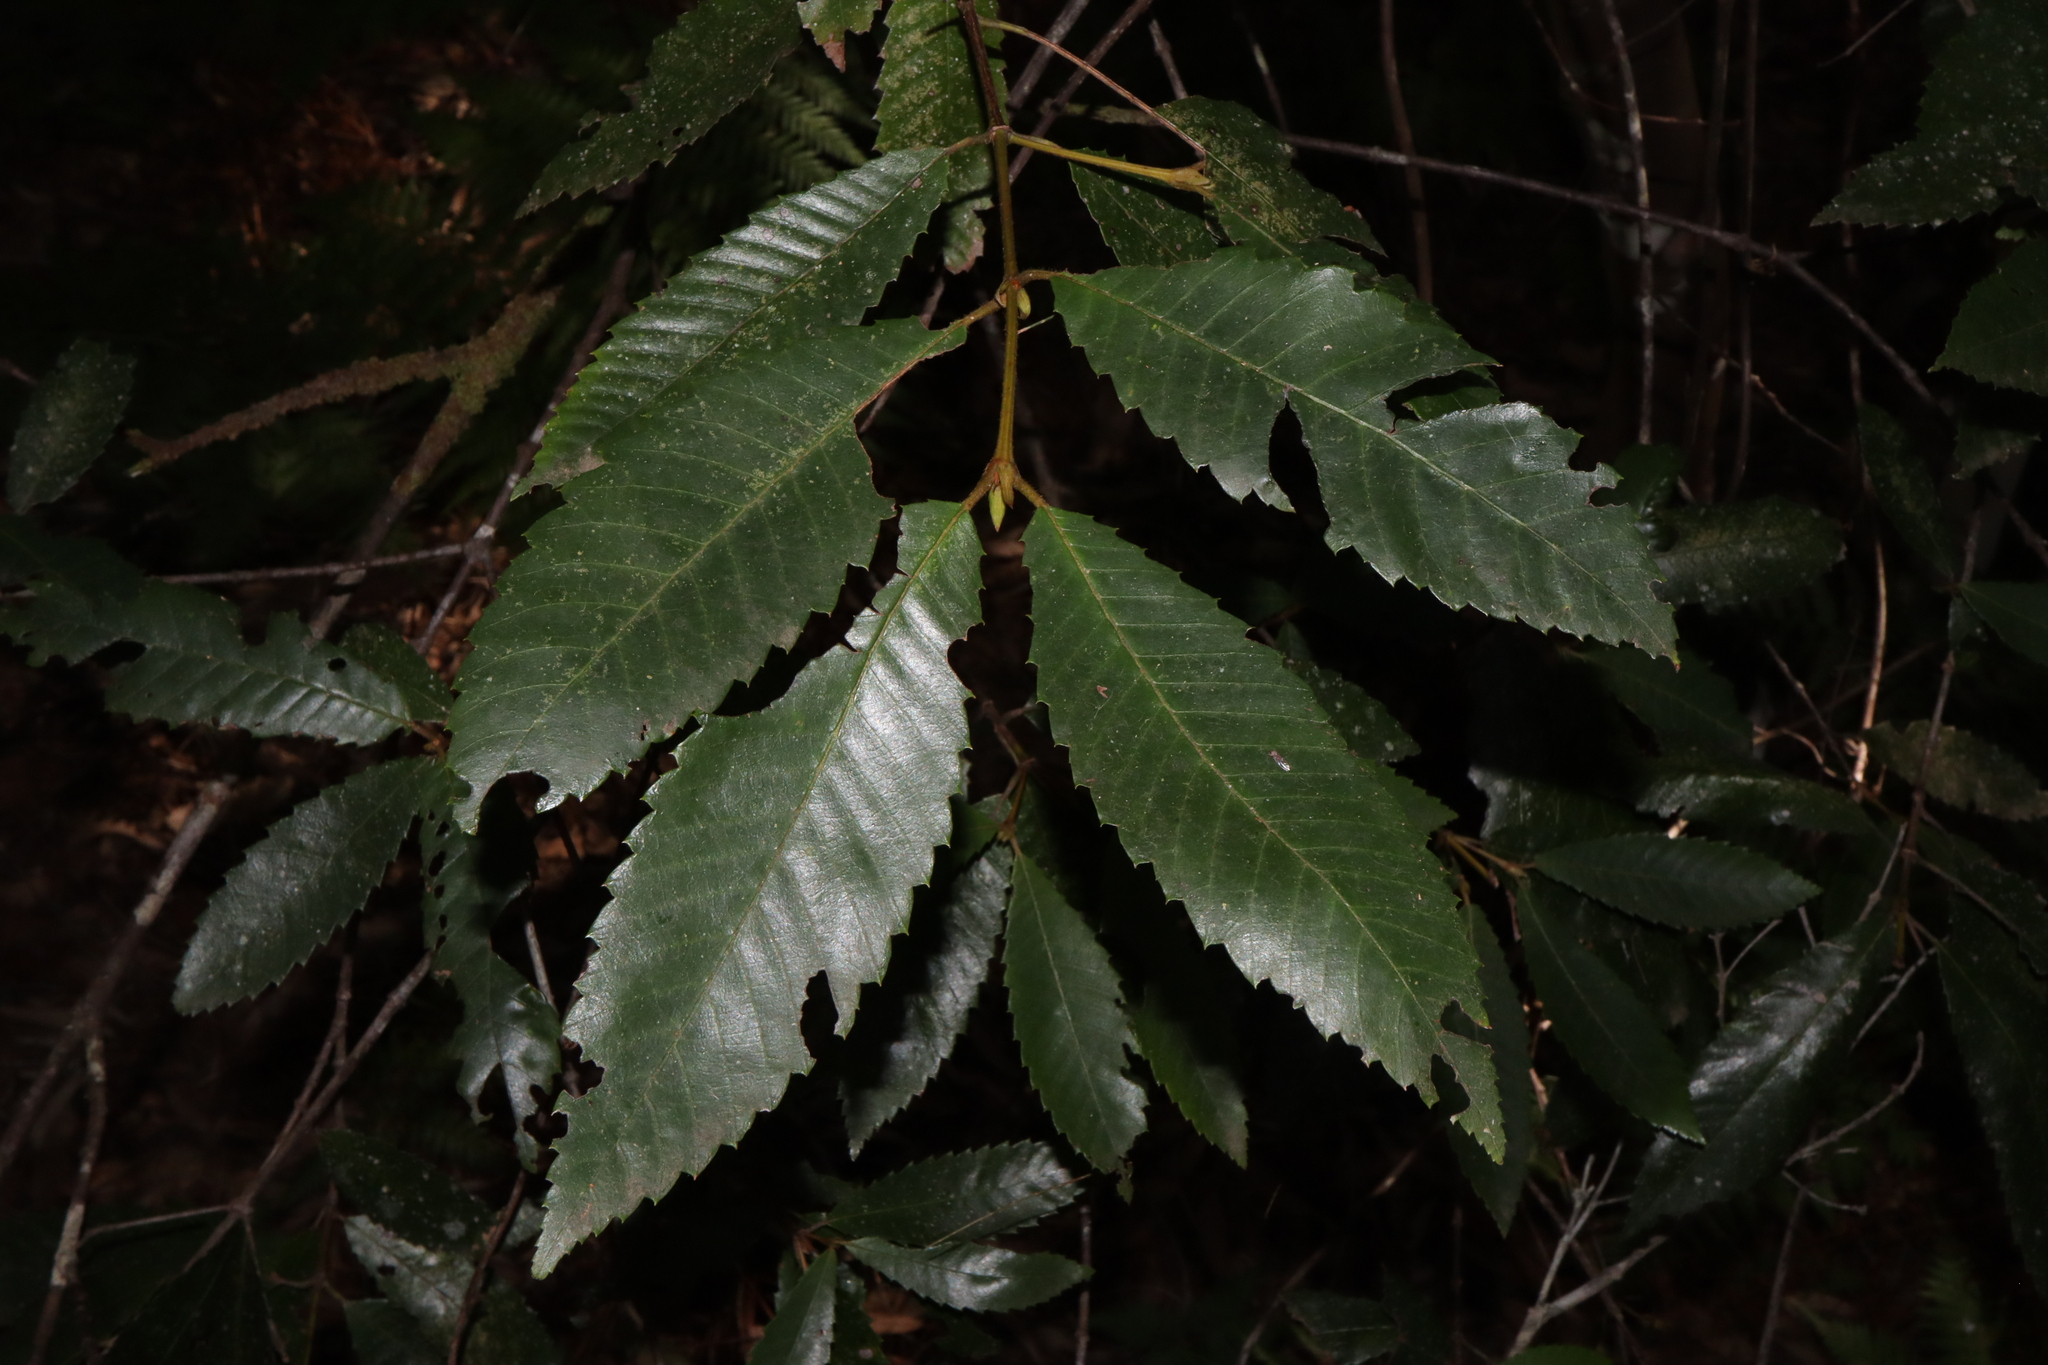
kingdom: Plantae
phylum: Tracheophyta
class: Magnoliopsida
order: Oxalidales
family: Cunoniaceae
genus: Callicoma
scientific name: Callicoma serratifolia
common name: Black wattle
